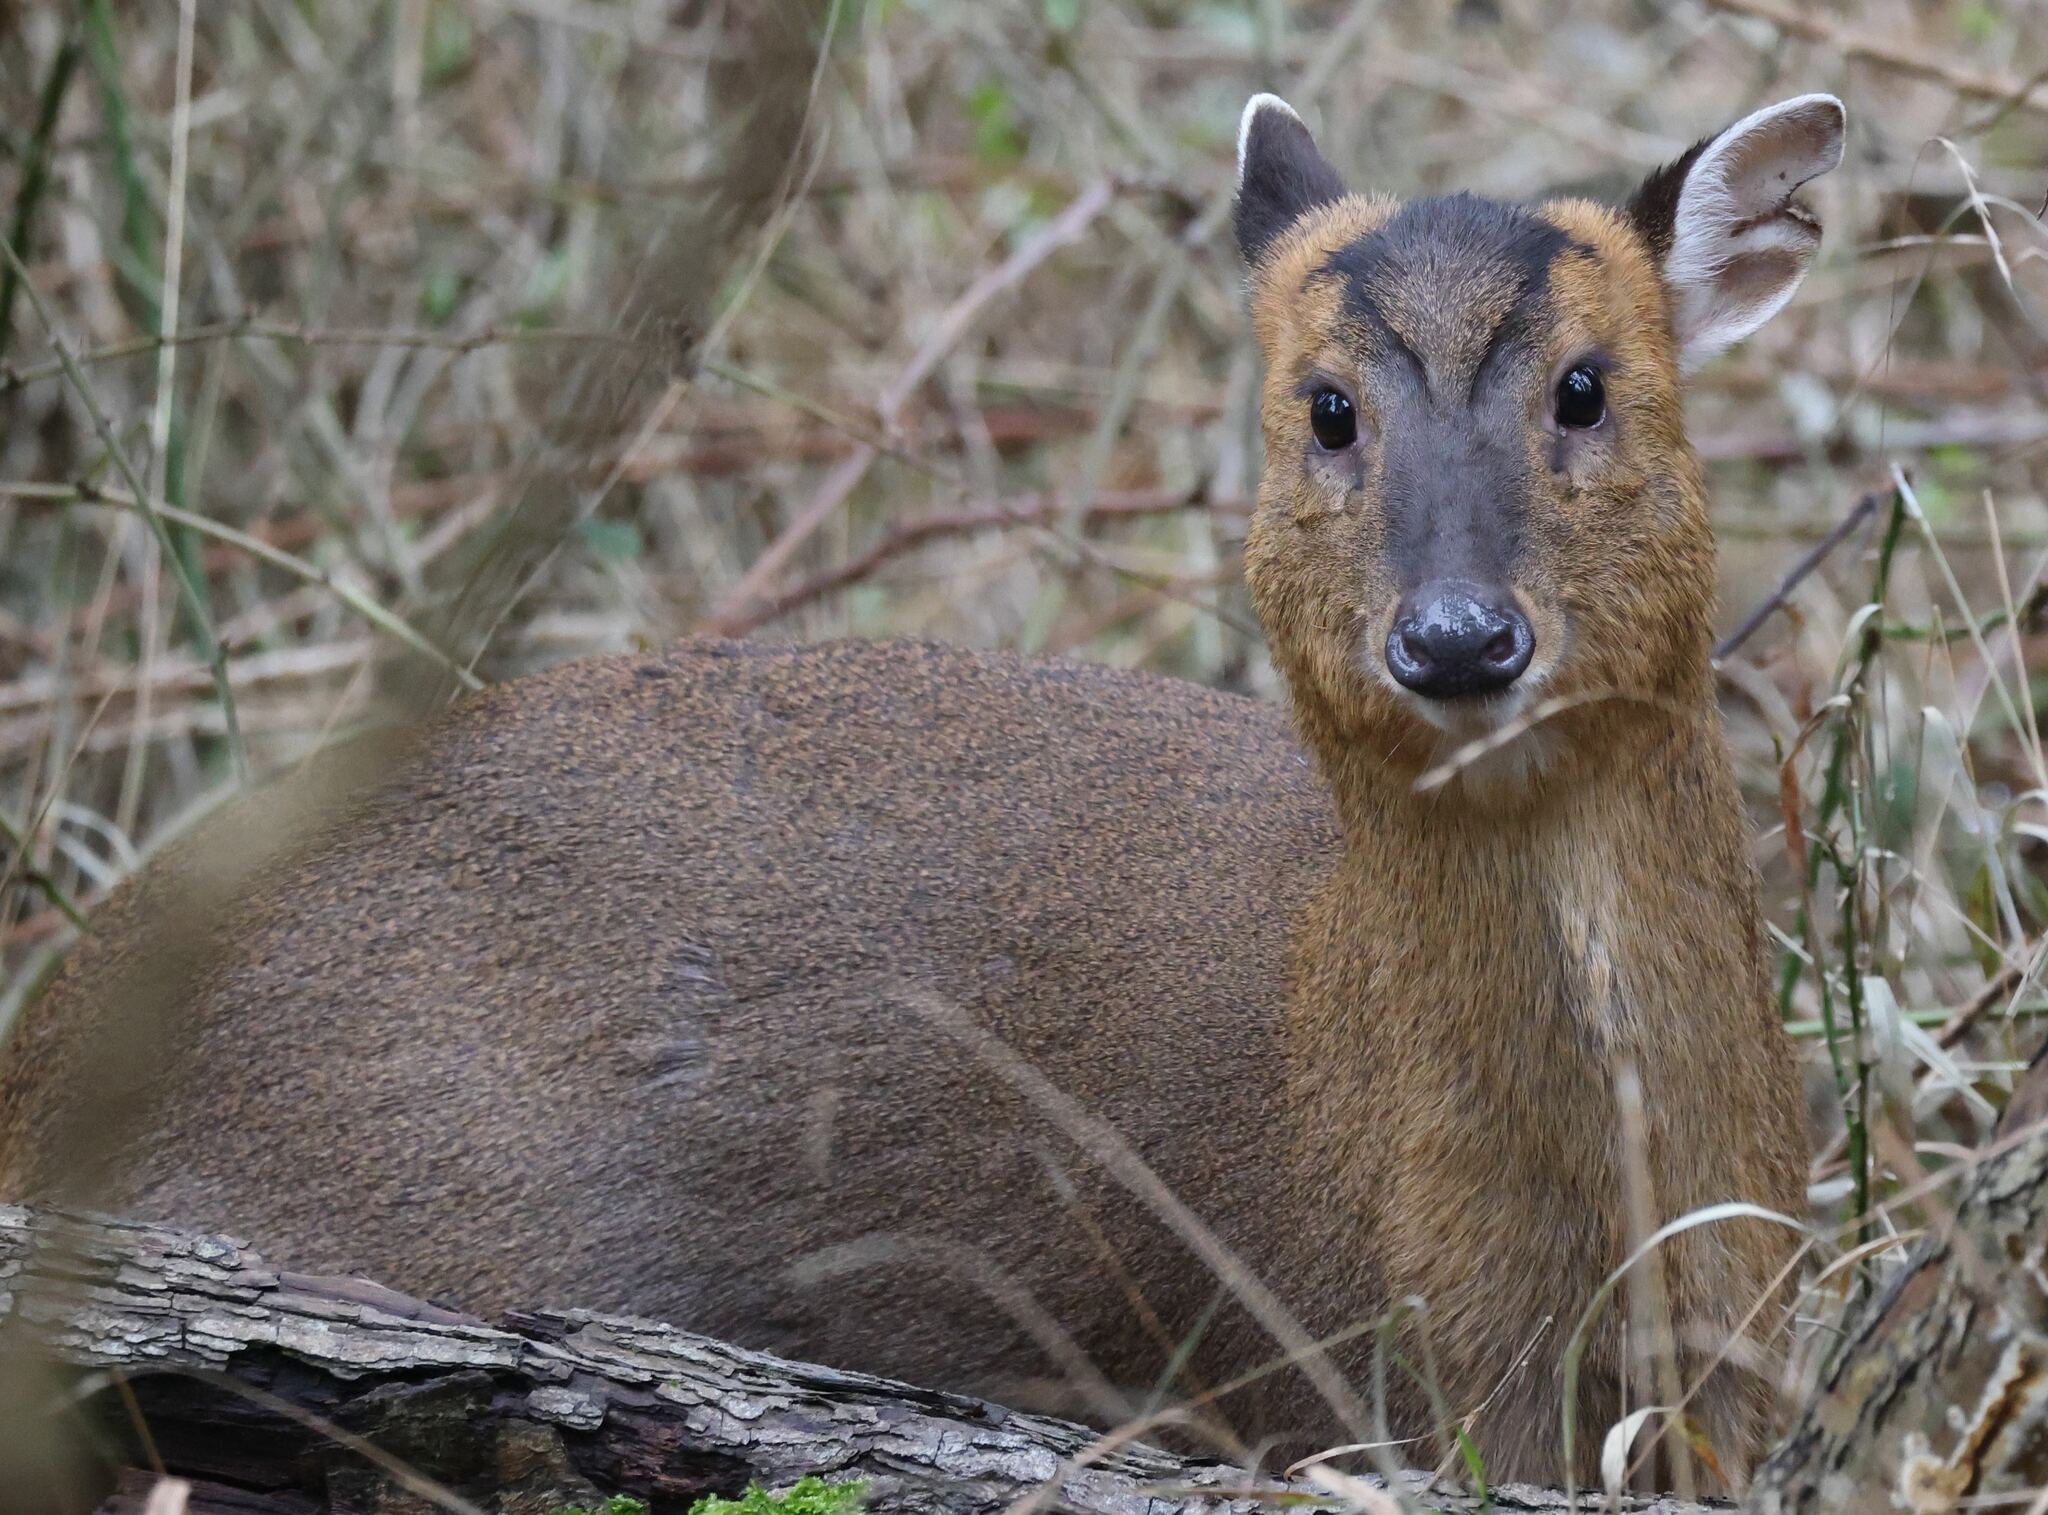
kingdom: Animalia
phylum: Chordata
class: Mammalia
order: Artiodactyla
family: Cervidae
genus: Muntiacus
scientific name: Muntiacus reevesi
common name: Reeves' muntjac
